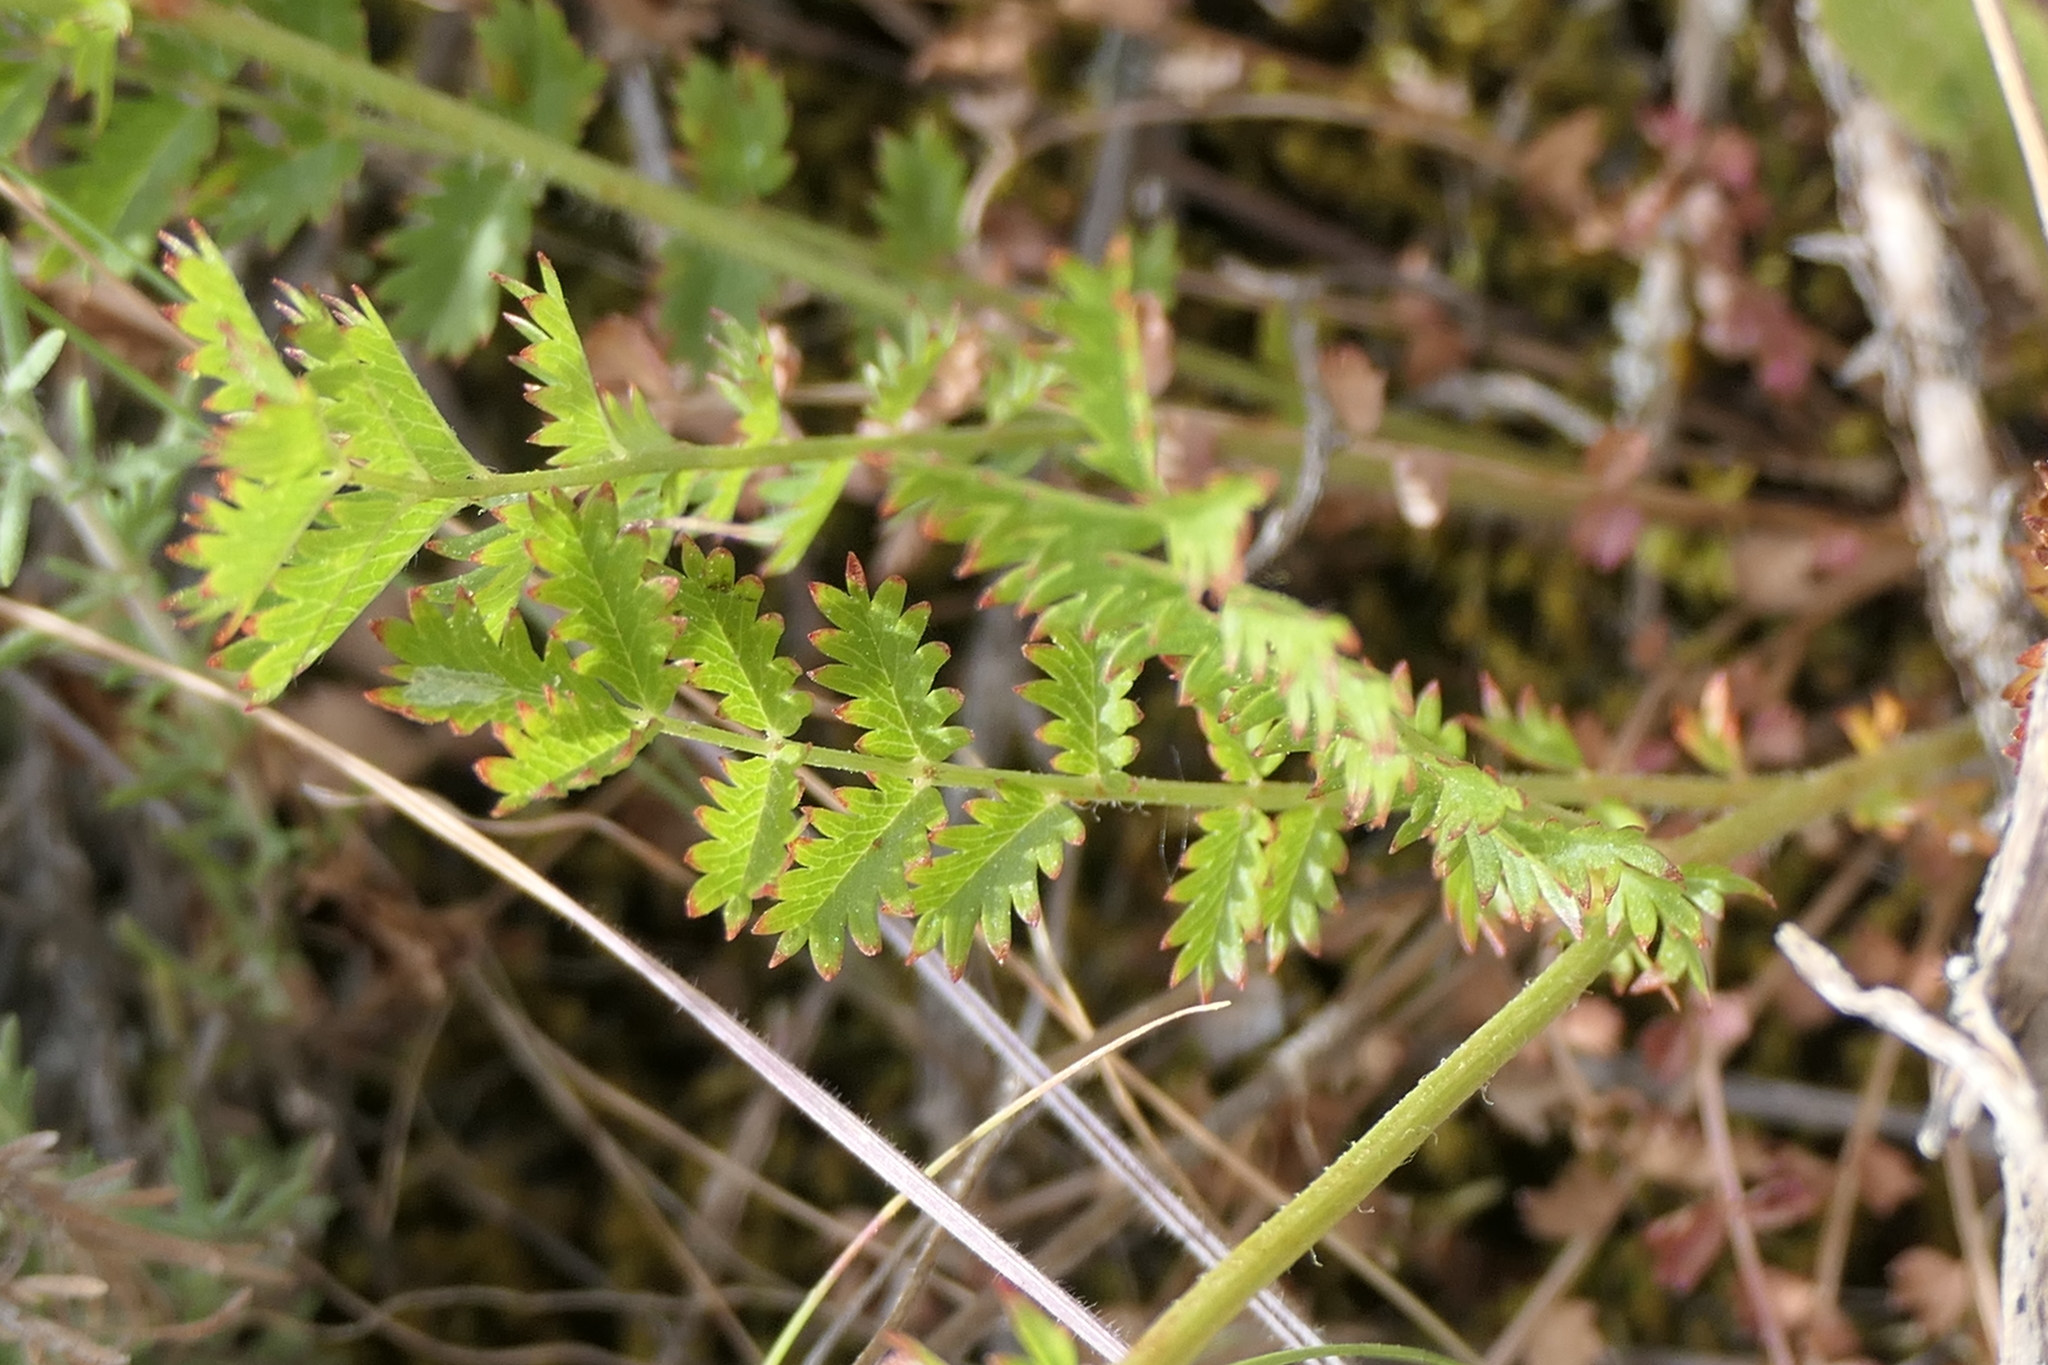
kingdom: Plantae
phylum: Tracheophyta
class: Magnoliopsida
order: Rosales
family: Rosaceae
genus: Poterium
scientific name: Poterium sanguisorba
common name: Salad burnet
